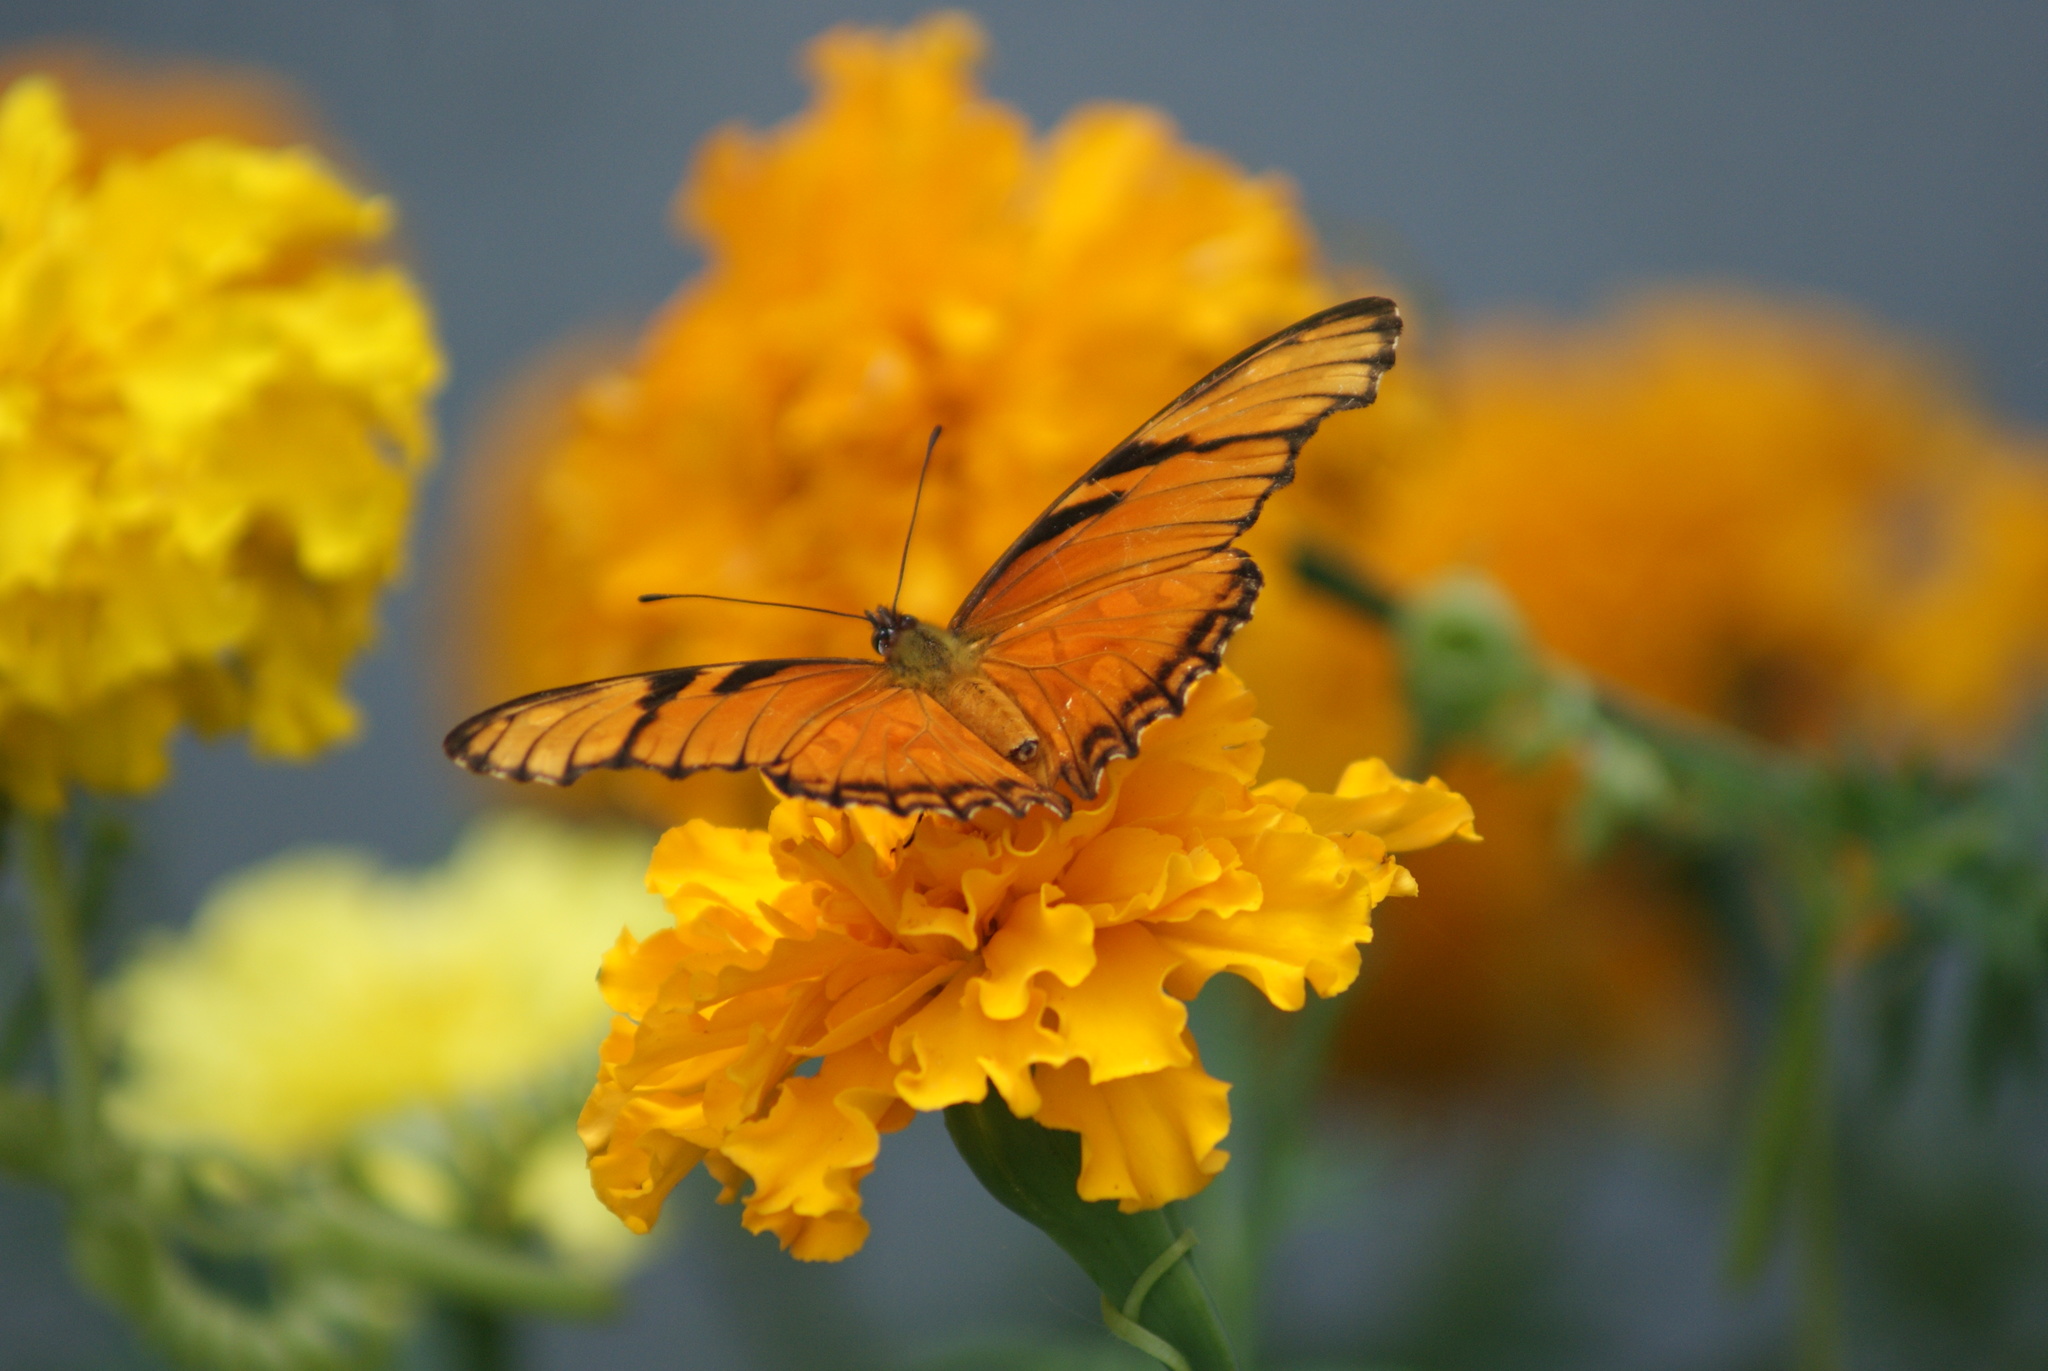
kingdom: Animalia
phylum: Arthropoda
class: Insecta
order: Lepidoptera
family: Nymphalidae
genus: Dione
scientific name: Dione juno
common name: Juno silverspot
